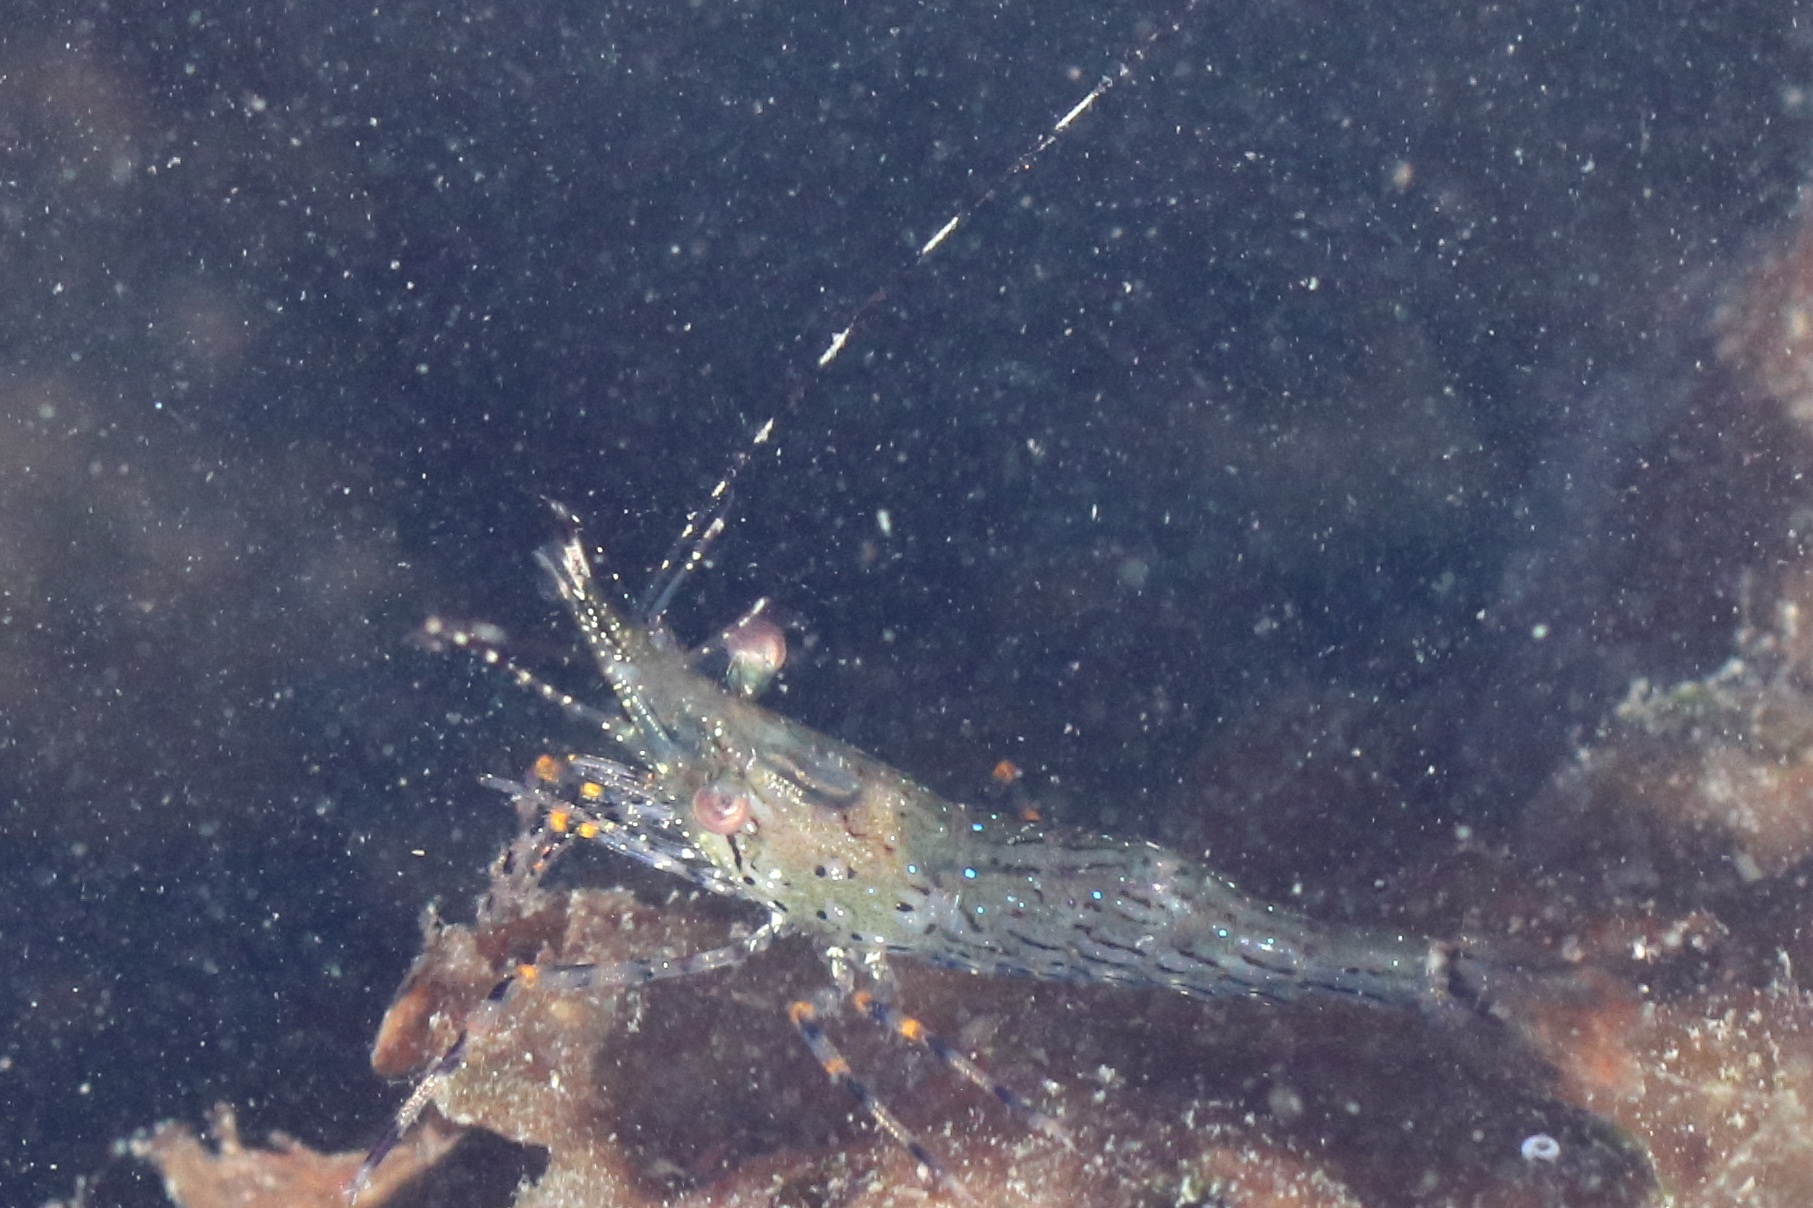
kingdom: Animalia
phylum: Arthropoda
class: Malacostraca
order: Decapoda
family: Pandalidae
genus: Pandalus
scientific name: Pandalus danae
